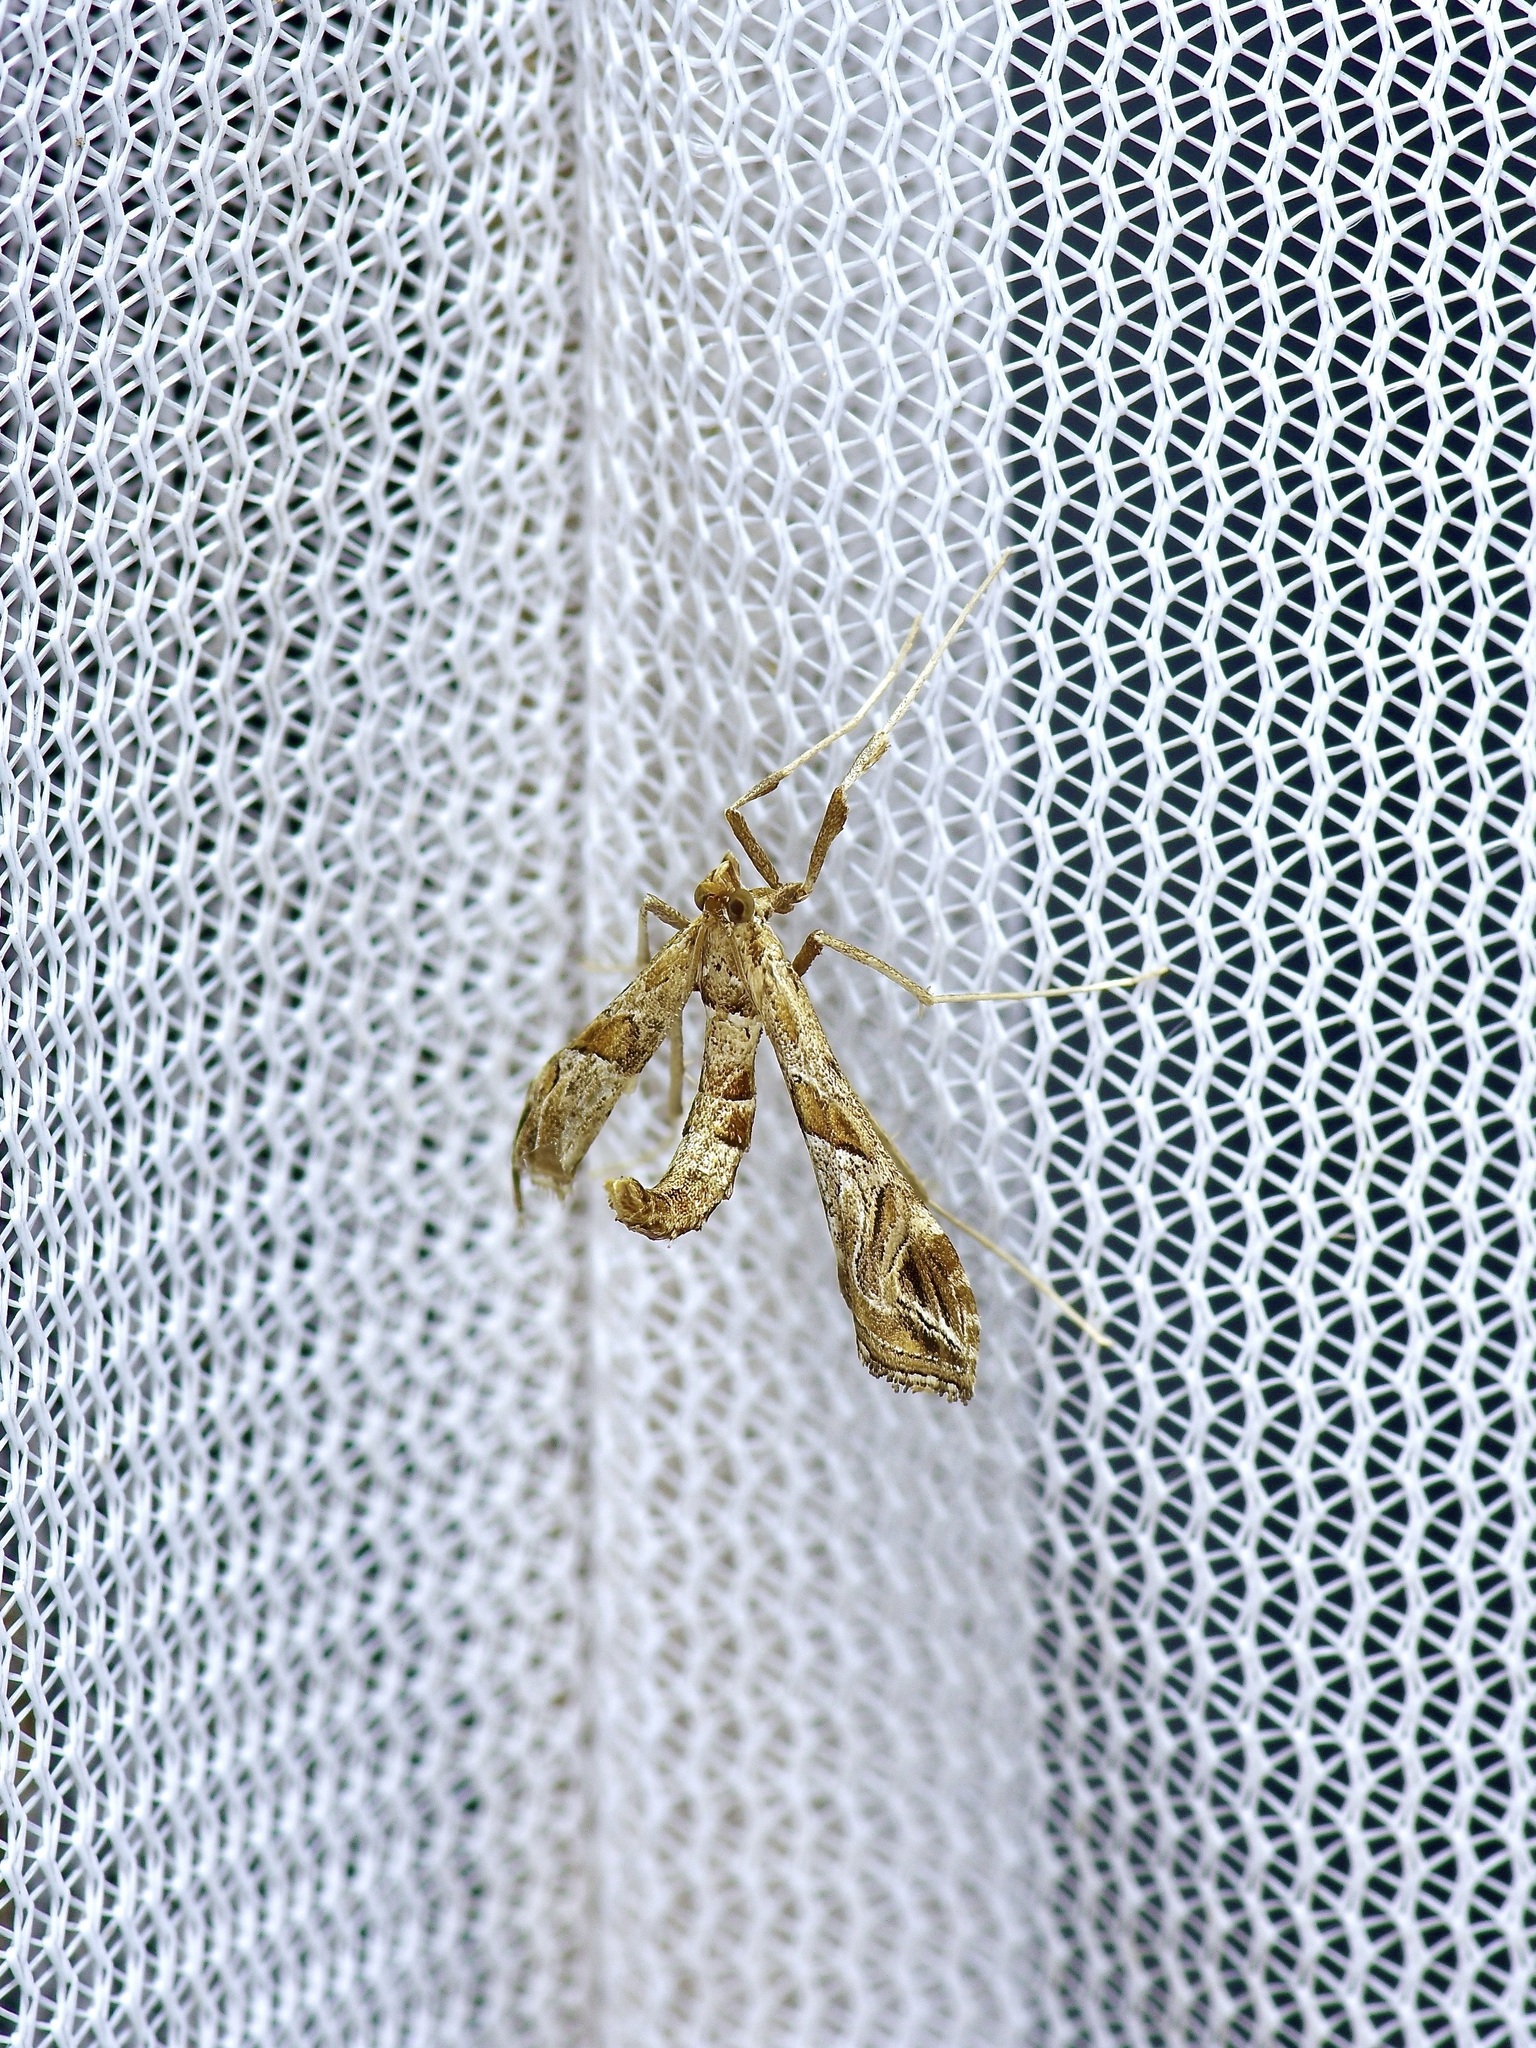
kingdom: Animalia
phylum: Arthropoda
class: Insecta
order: Lepidoptera
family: Crambidae
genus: Lineodes
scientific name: Lineodes interrupta
